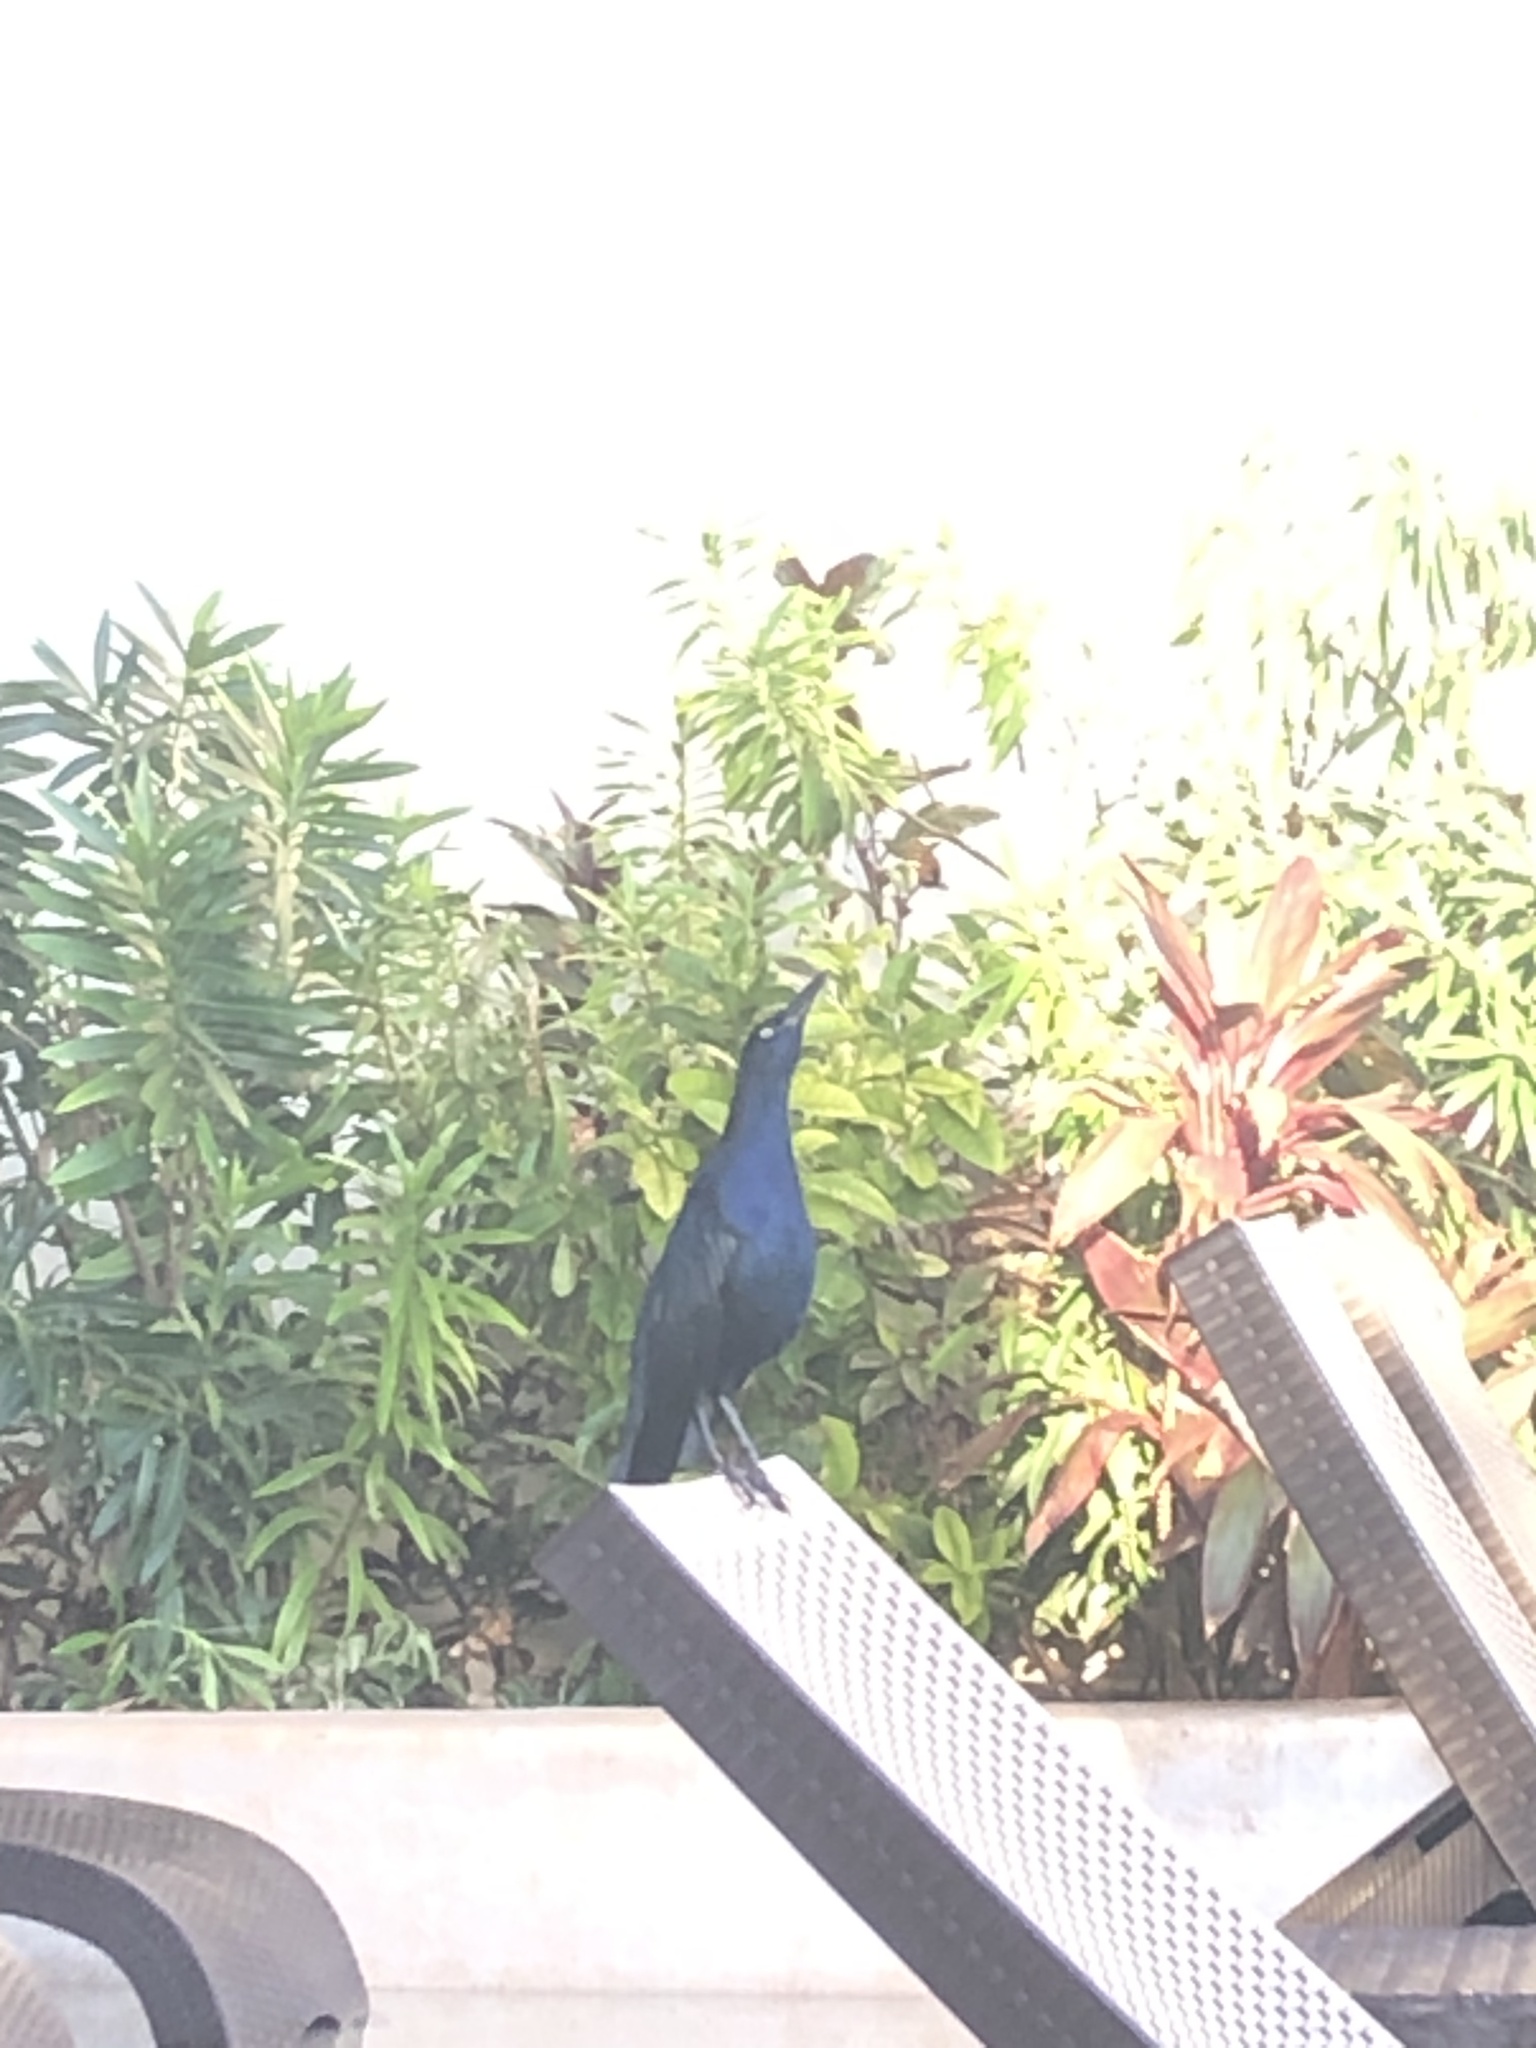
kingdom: Animalia
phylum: Chordata
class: Aves
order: Passeriformes
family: Icteridae
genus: Quiscalus
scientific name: Quiscalus mexicanus
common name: Great-tailed grackle
